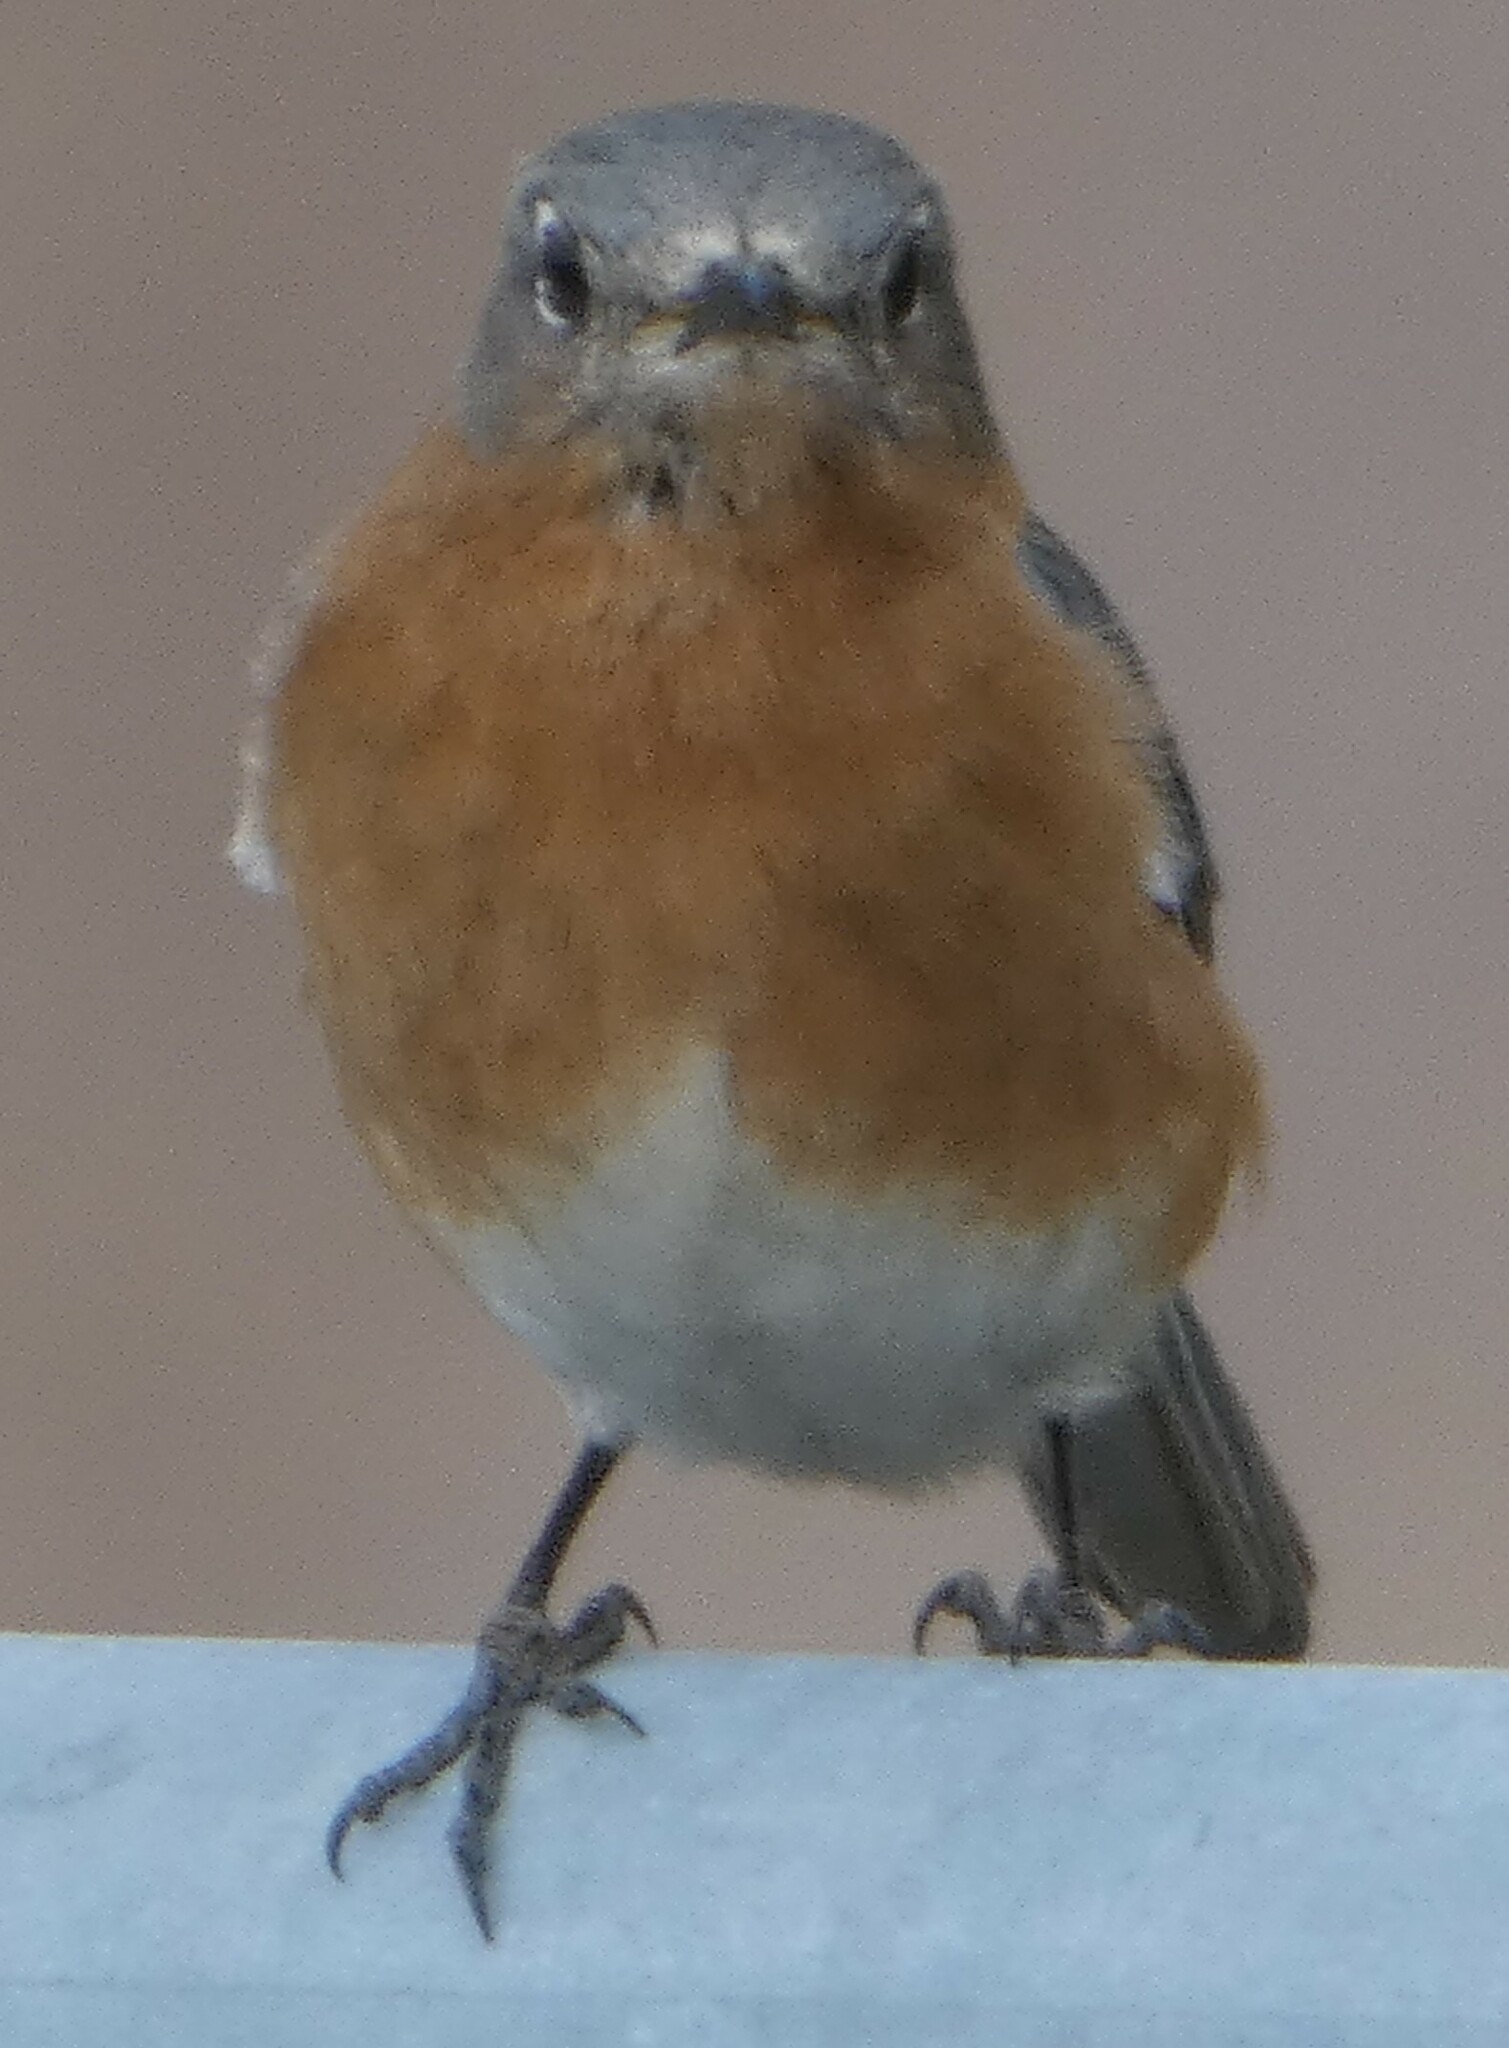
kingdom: Animalia
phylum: Chordata
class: Aves
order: Passeriformes
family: Turdidae
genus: Sialia
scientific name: Sialia sialis
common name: Eastern bluebird
